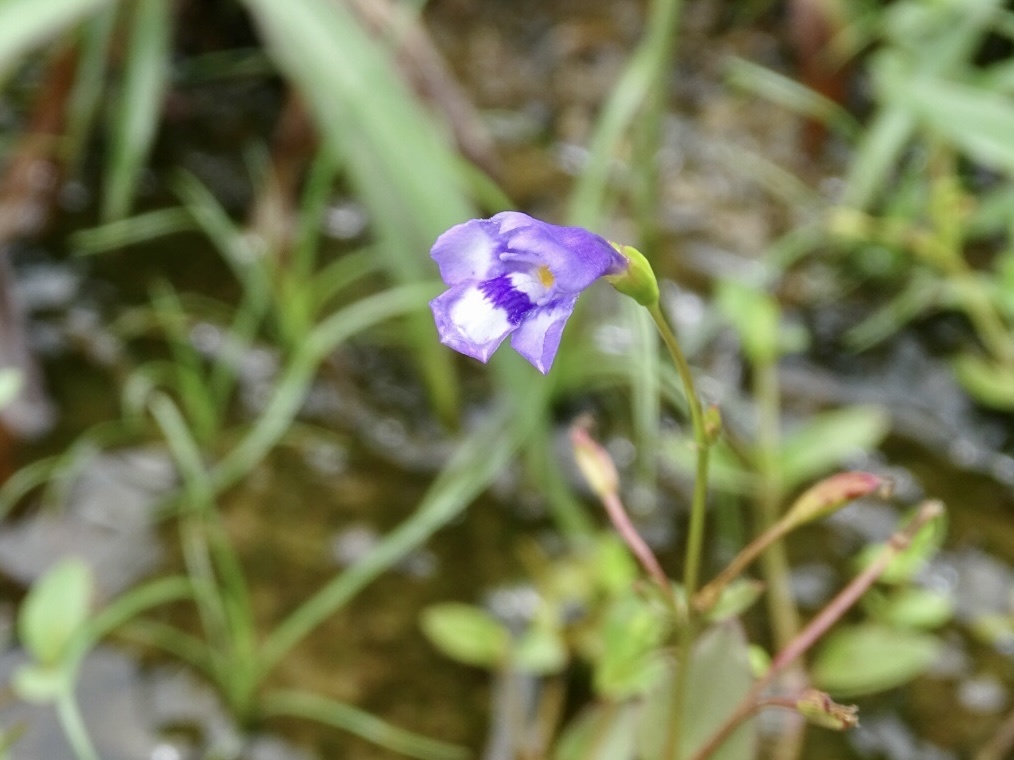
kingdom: Plantae
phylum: Tracheophyta
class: Magnoliopsida
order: Lamiales
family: Linderniaceae
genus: Torenia
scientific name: Torenia oblonga
